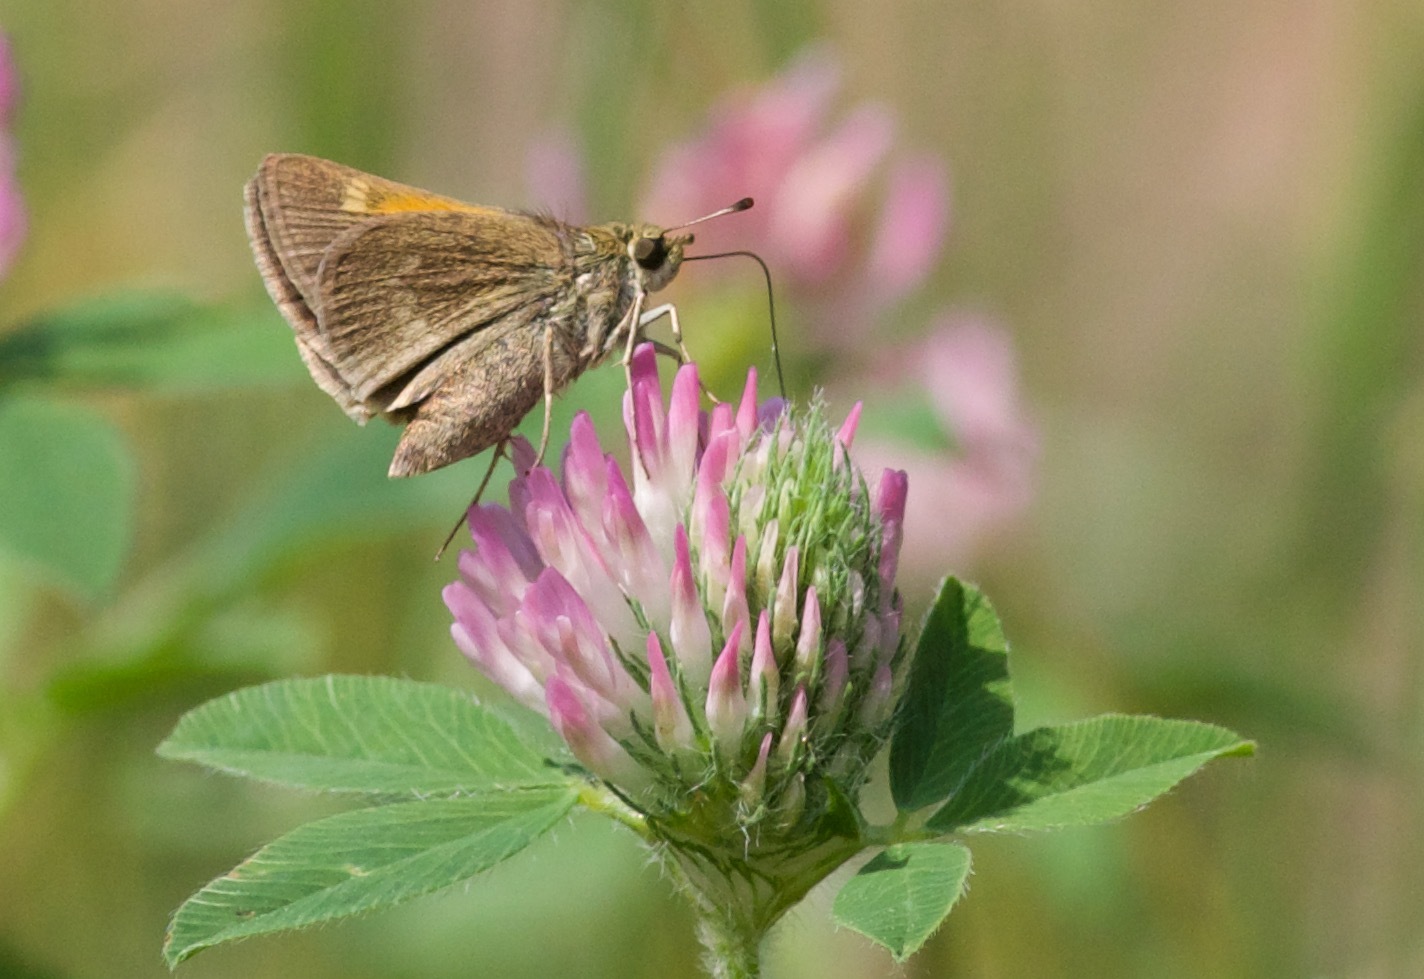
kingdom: Animalia
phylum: Arthropoda
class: Insecta
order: Lepidoptera
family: Hesperiidae
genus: Polites
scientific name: Polites themistocles
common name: Tawny-edged skipper
